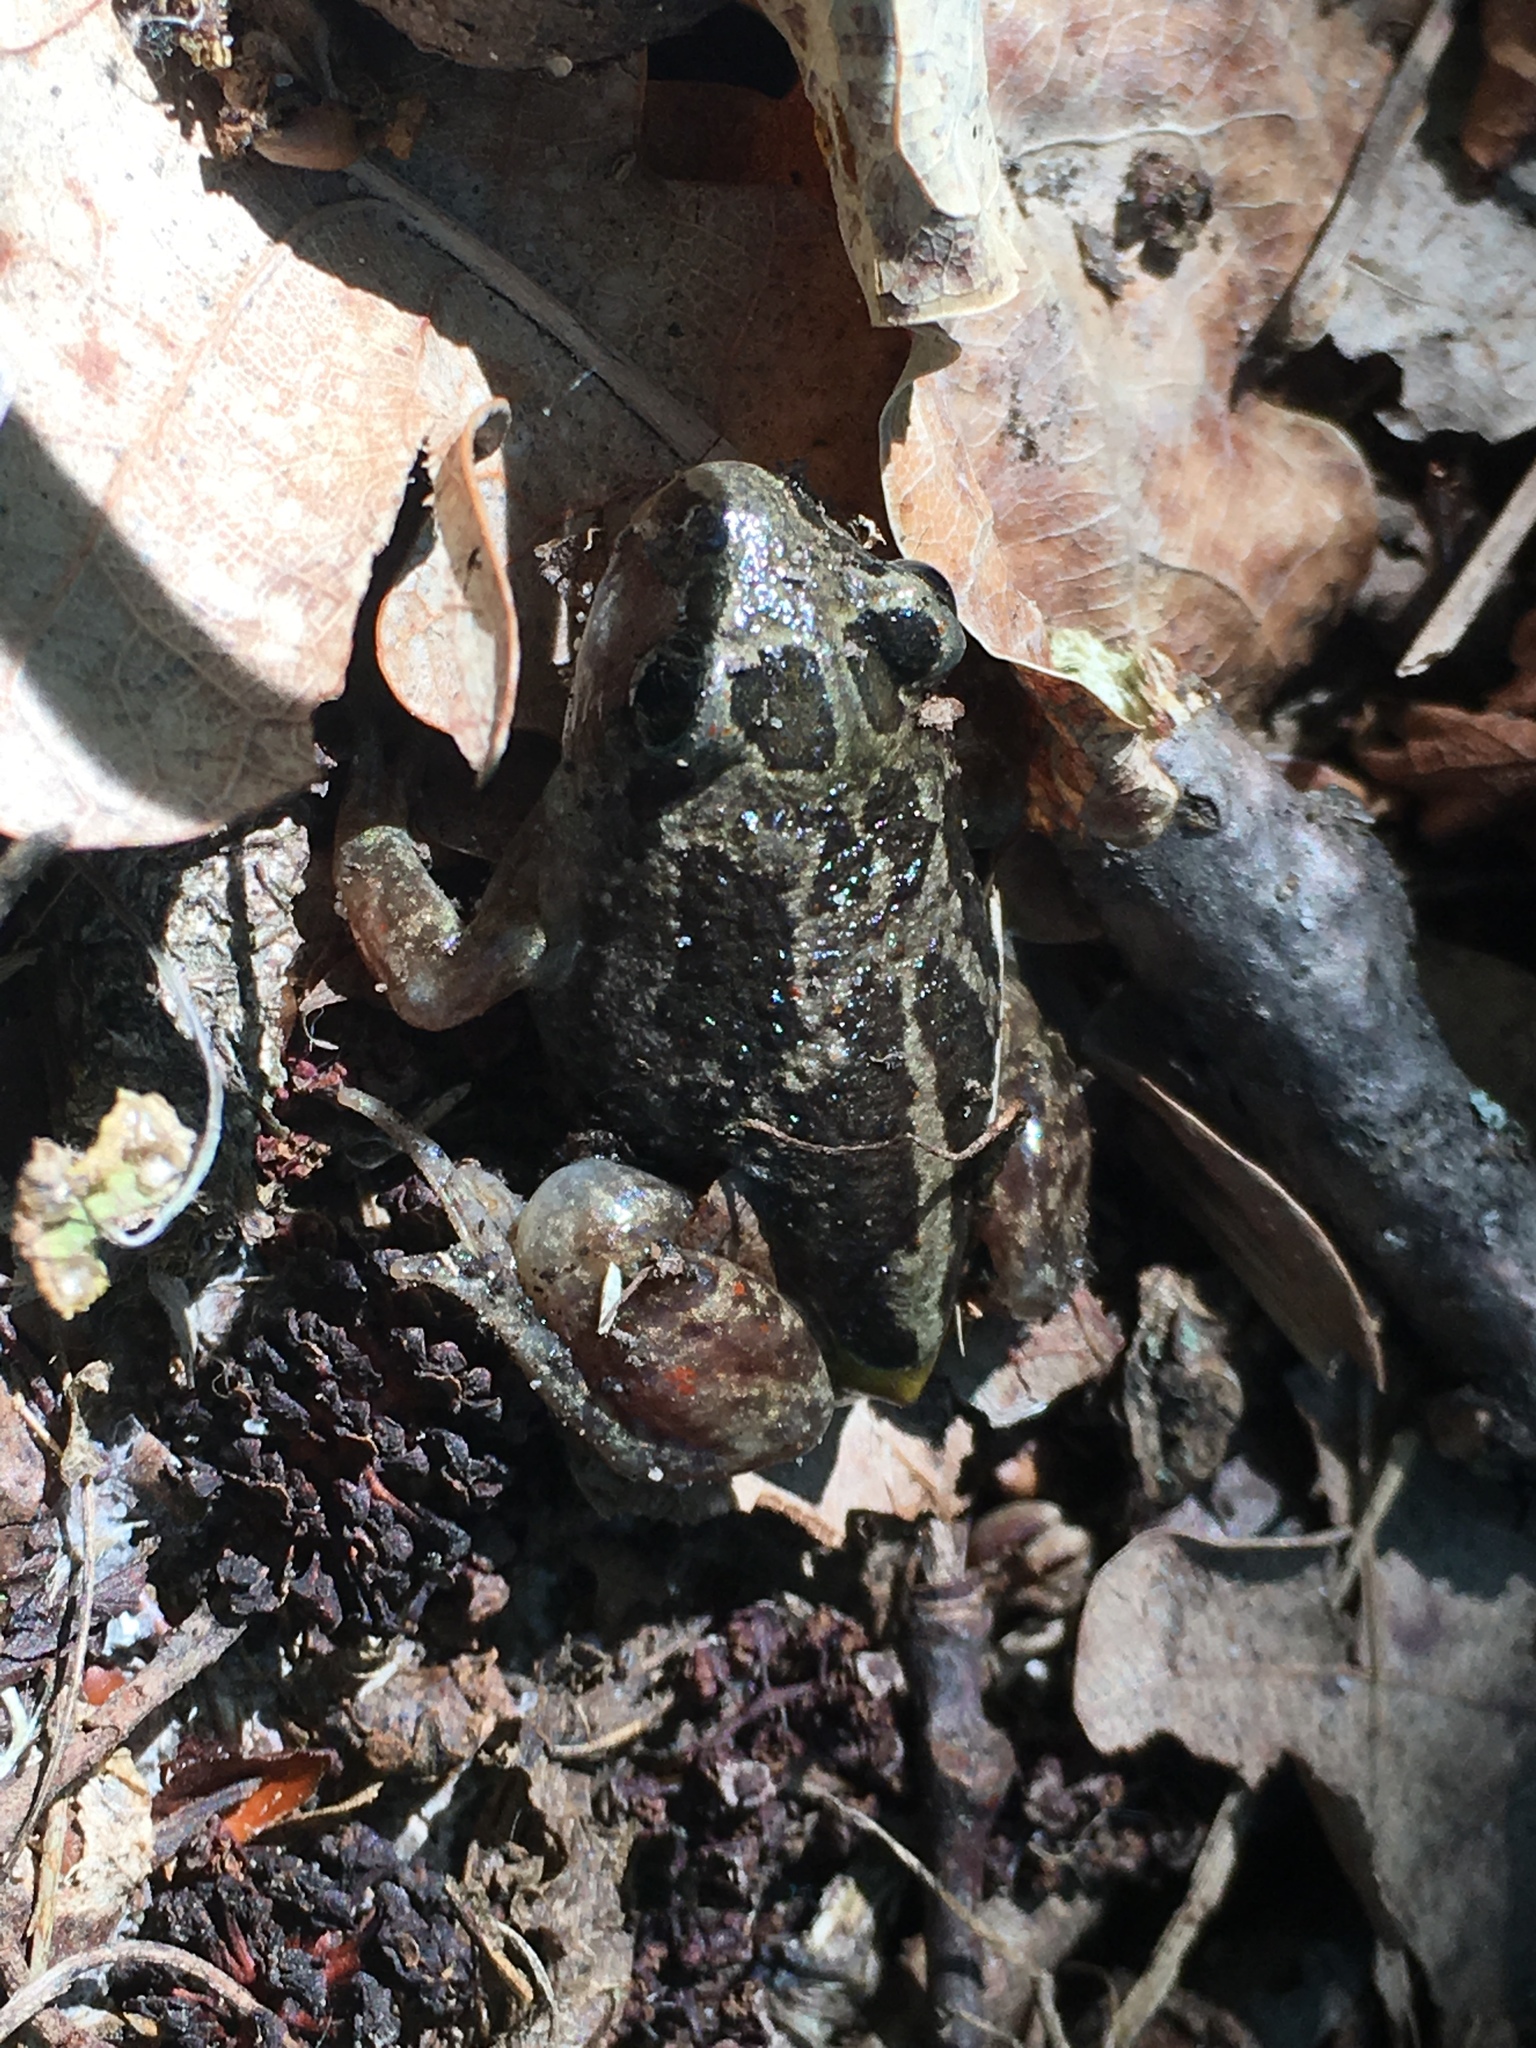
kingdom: Animalia
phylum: Chordata
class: Amphibia
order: Anura
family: Pelobatidae
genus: Pelobates
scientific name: Pelobates fuscus
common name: Common eurasian spadefoot toad
